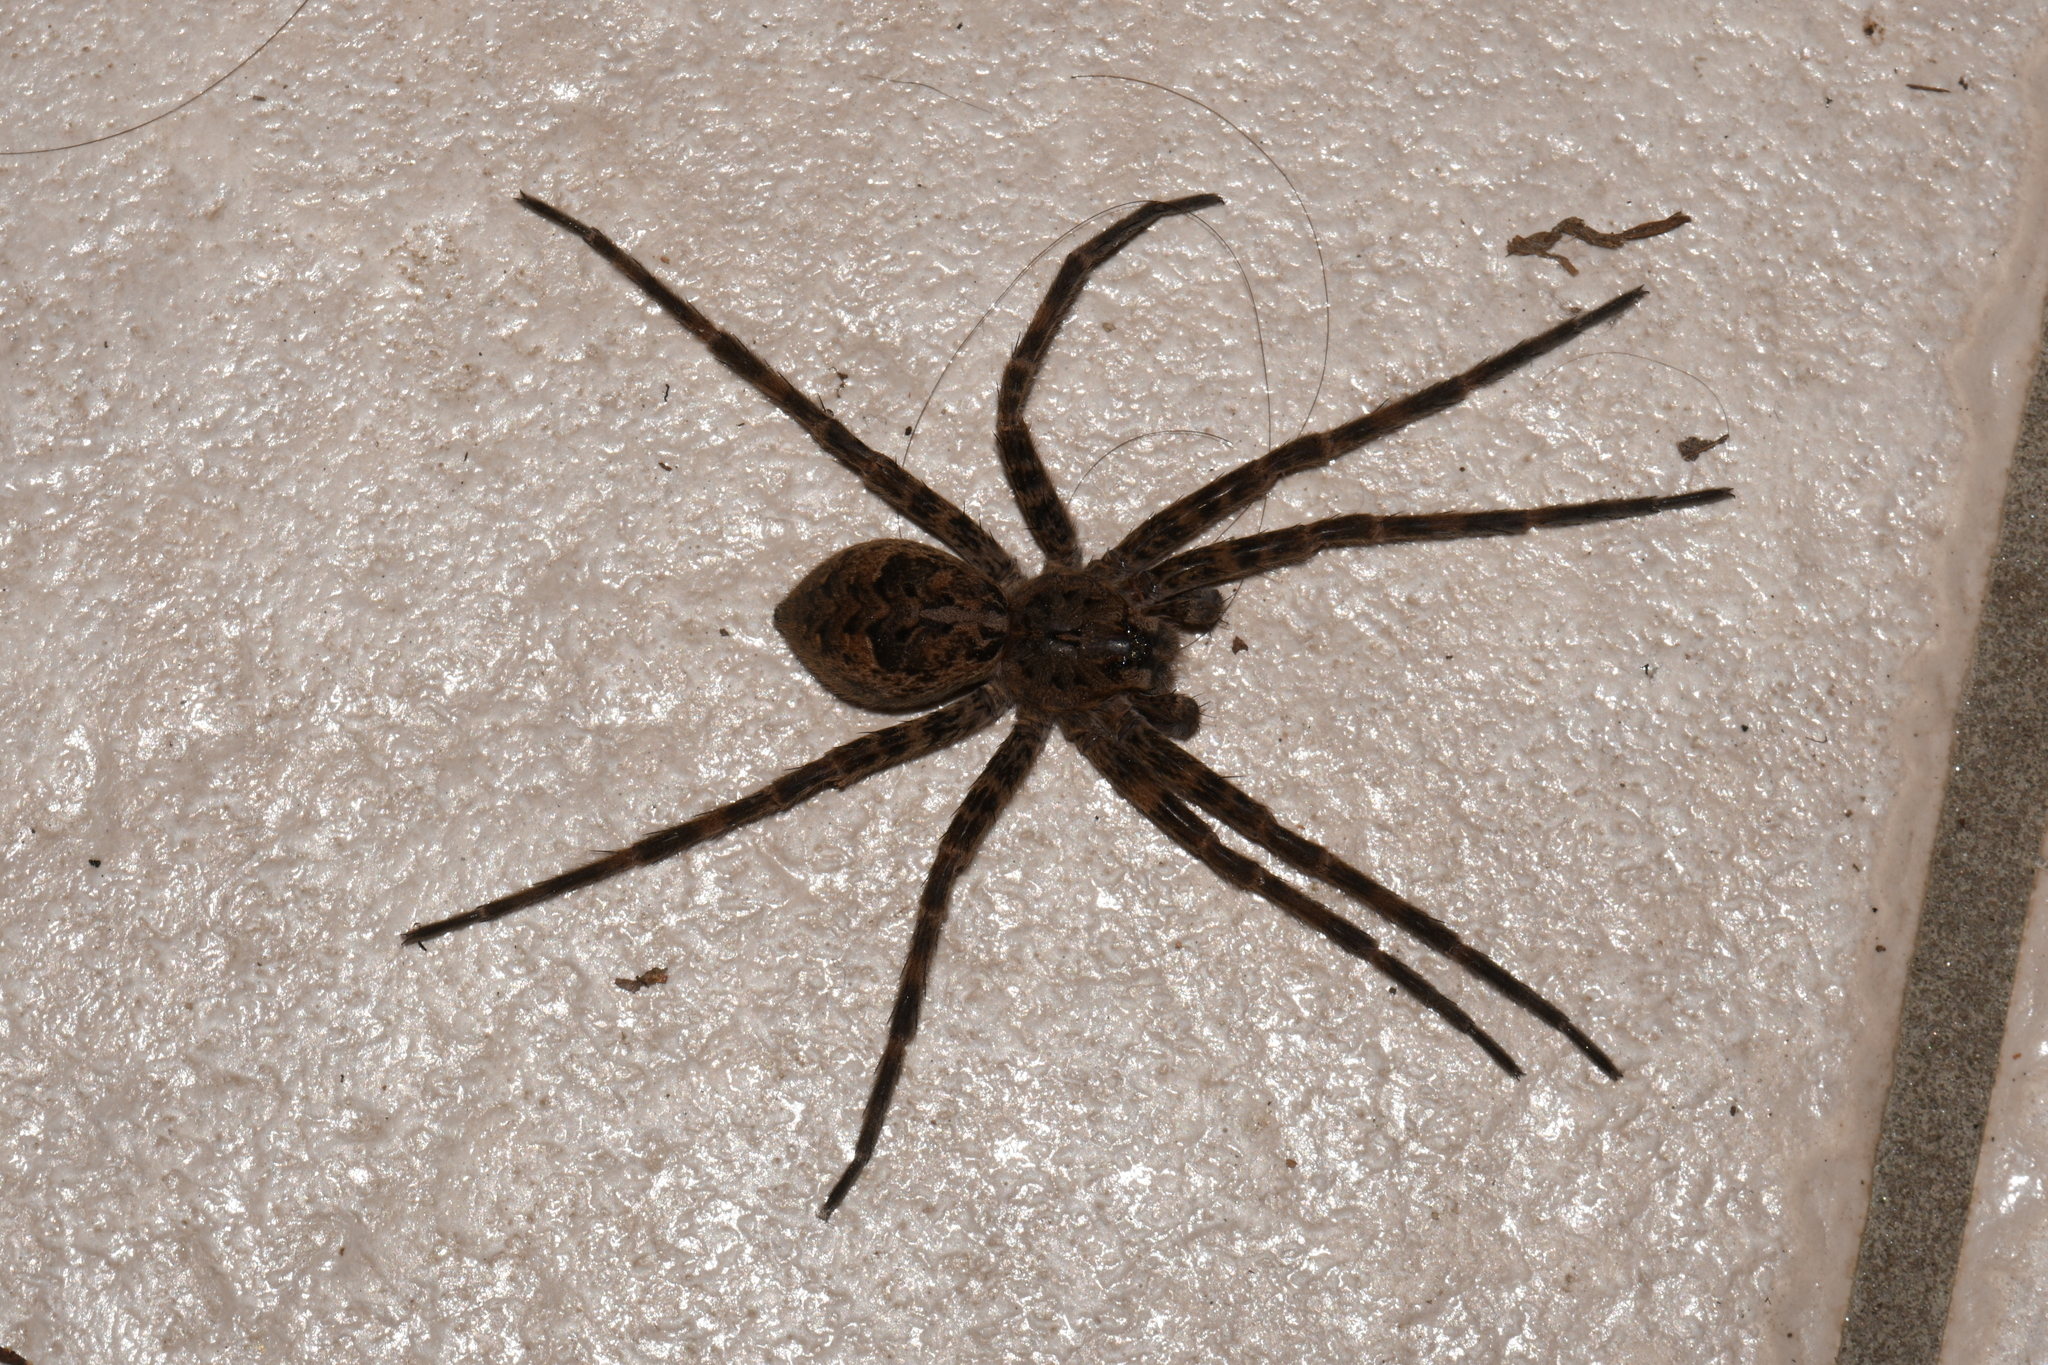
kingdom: Animalia
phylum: Arthropoda
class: Arachnida
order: Araneae
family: Pisauridae
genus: Dolomedes
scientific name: Dolomedes tenebrosus
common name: Dark fishing spider
